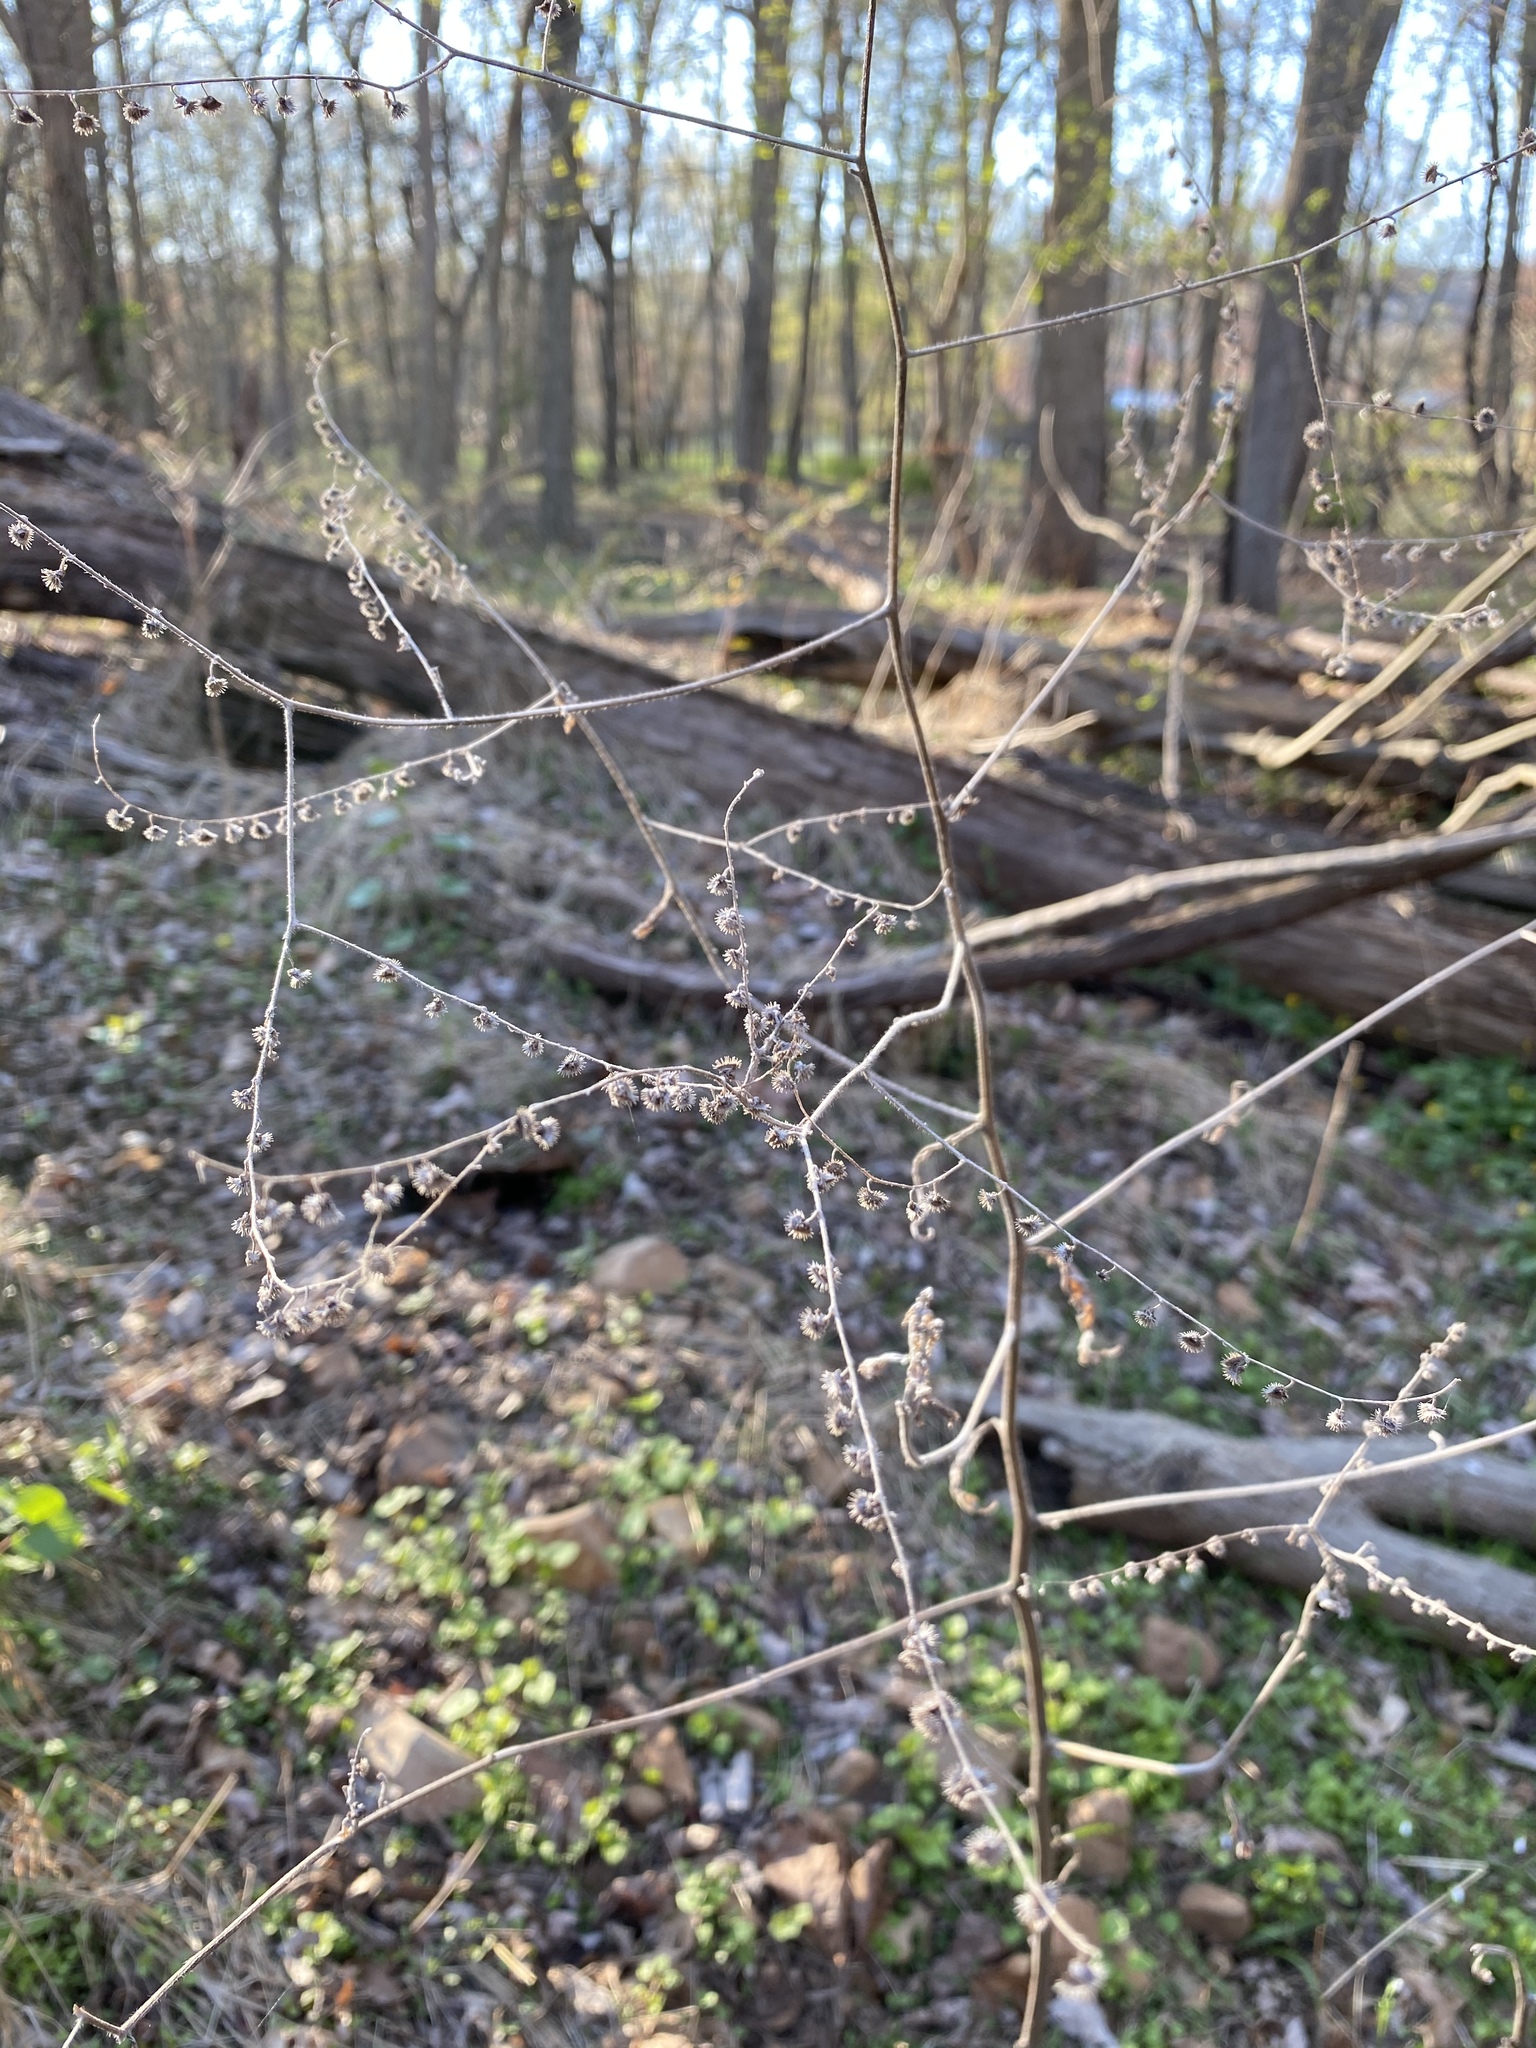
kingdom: Plantae
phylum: Tracheophyta
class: Magnoliopsida
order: Boraginales
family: Boraginaceae
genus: Hackelia
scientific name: Hackelia virginiana
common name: Beggar's-lice
